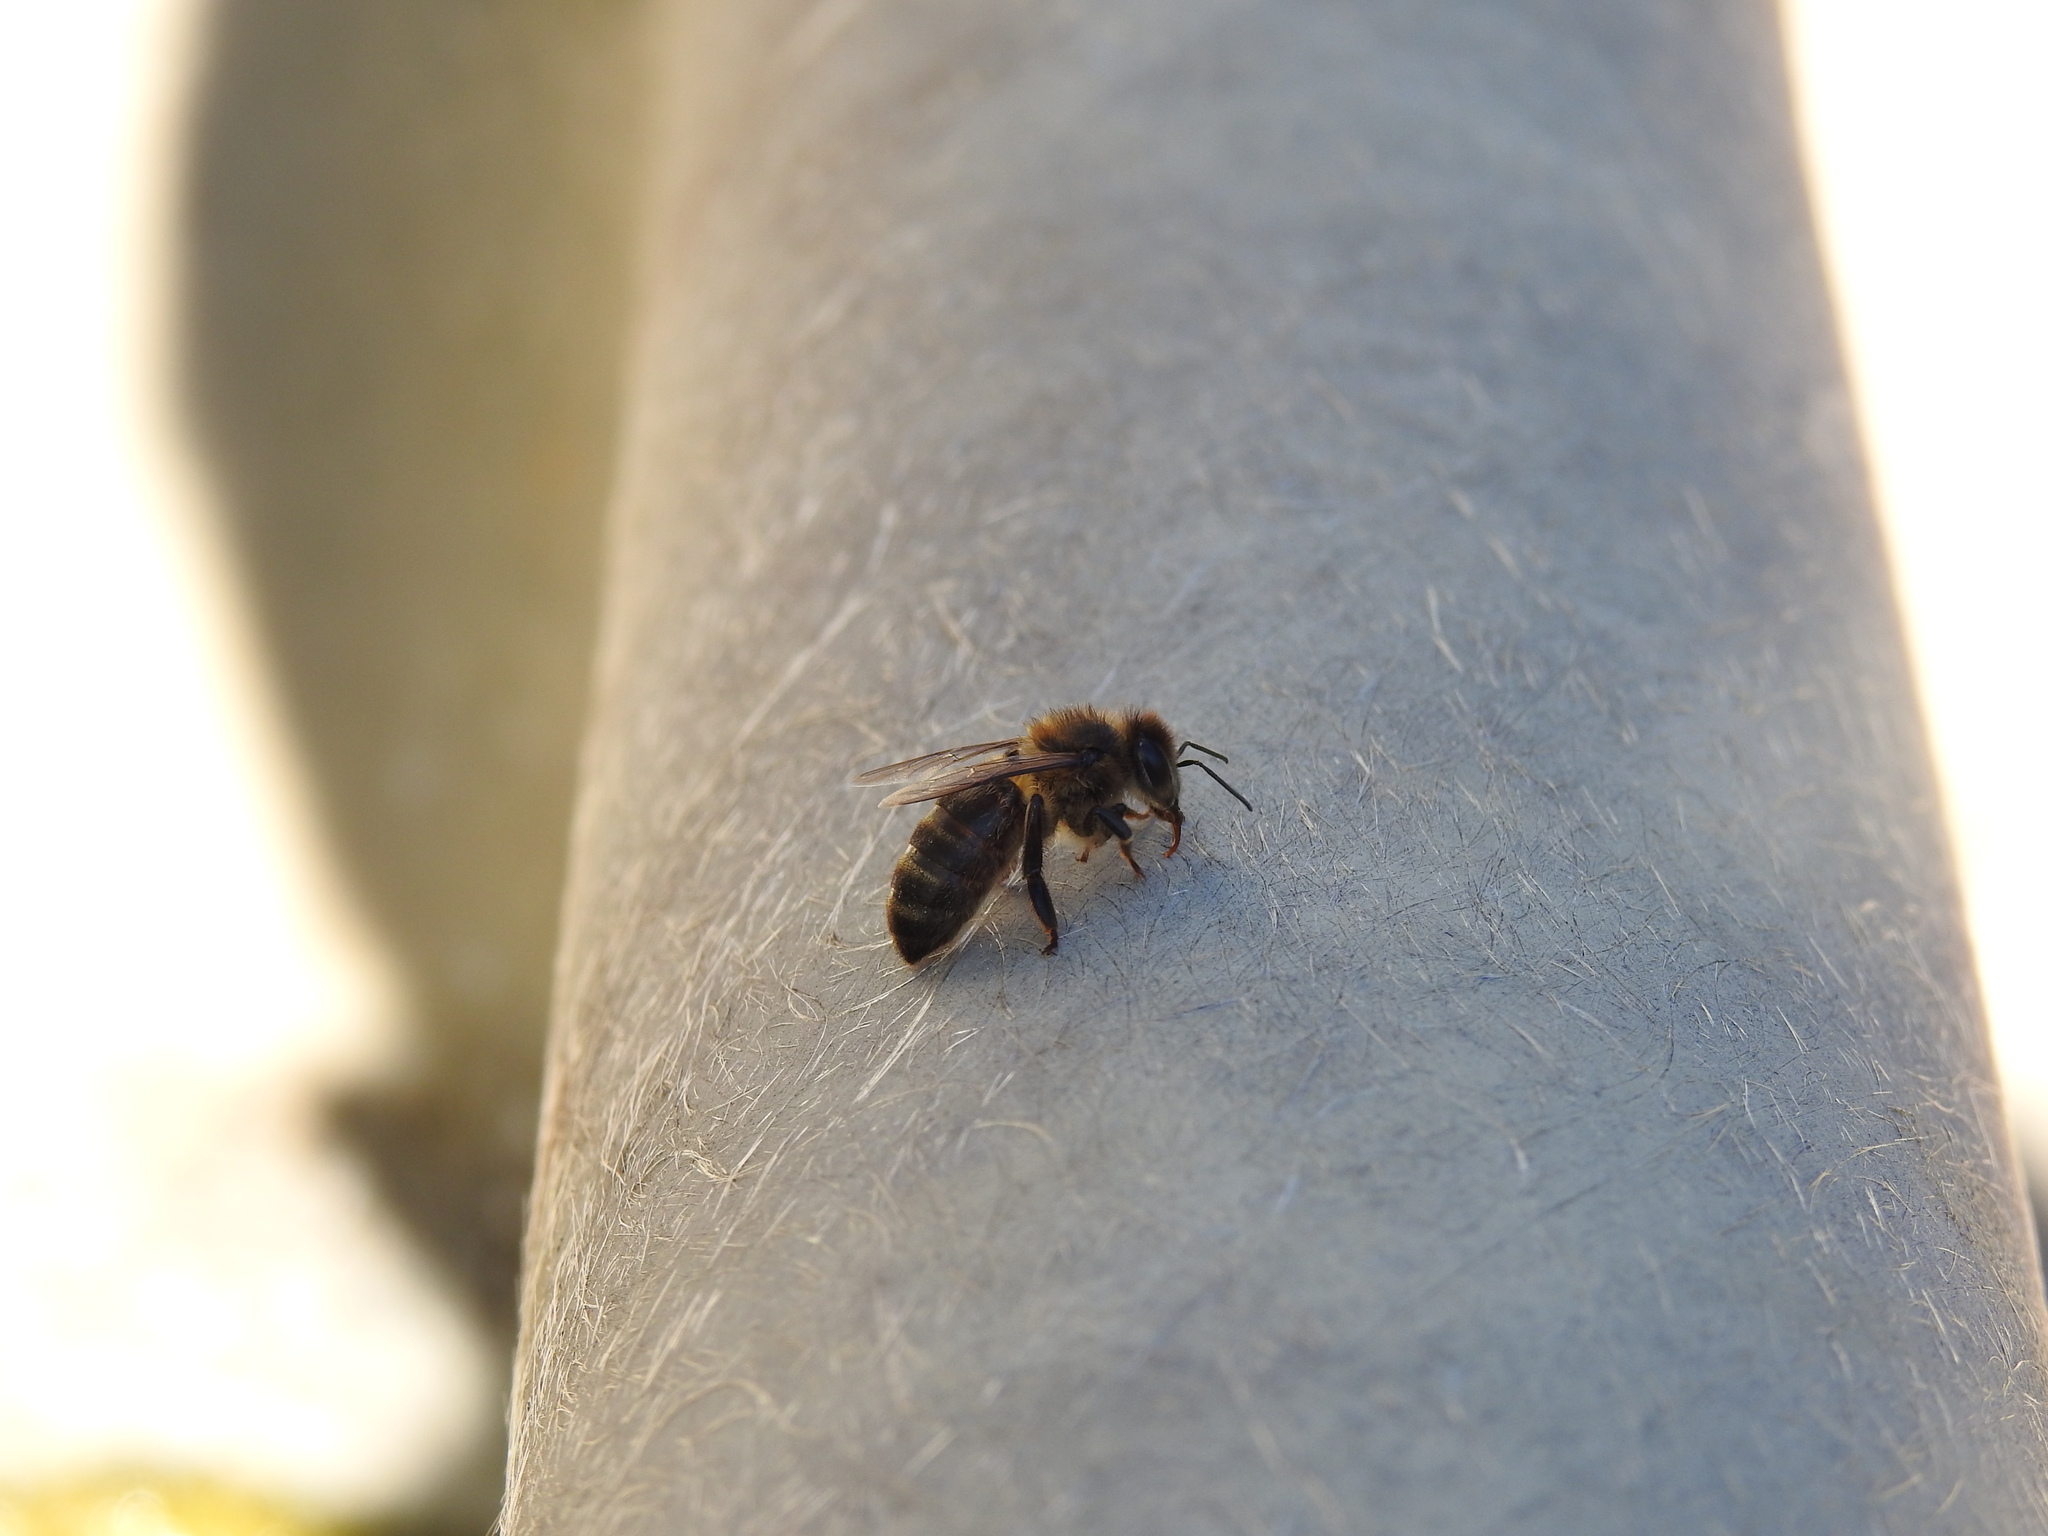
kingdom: Animalia
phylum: Arthropoda
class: Insecta
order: Hymenoptera
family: Apidae
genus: Apis
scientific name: Apis mellifera
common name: Honey bee
